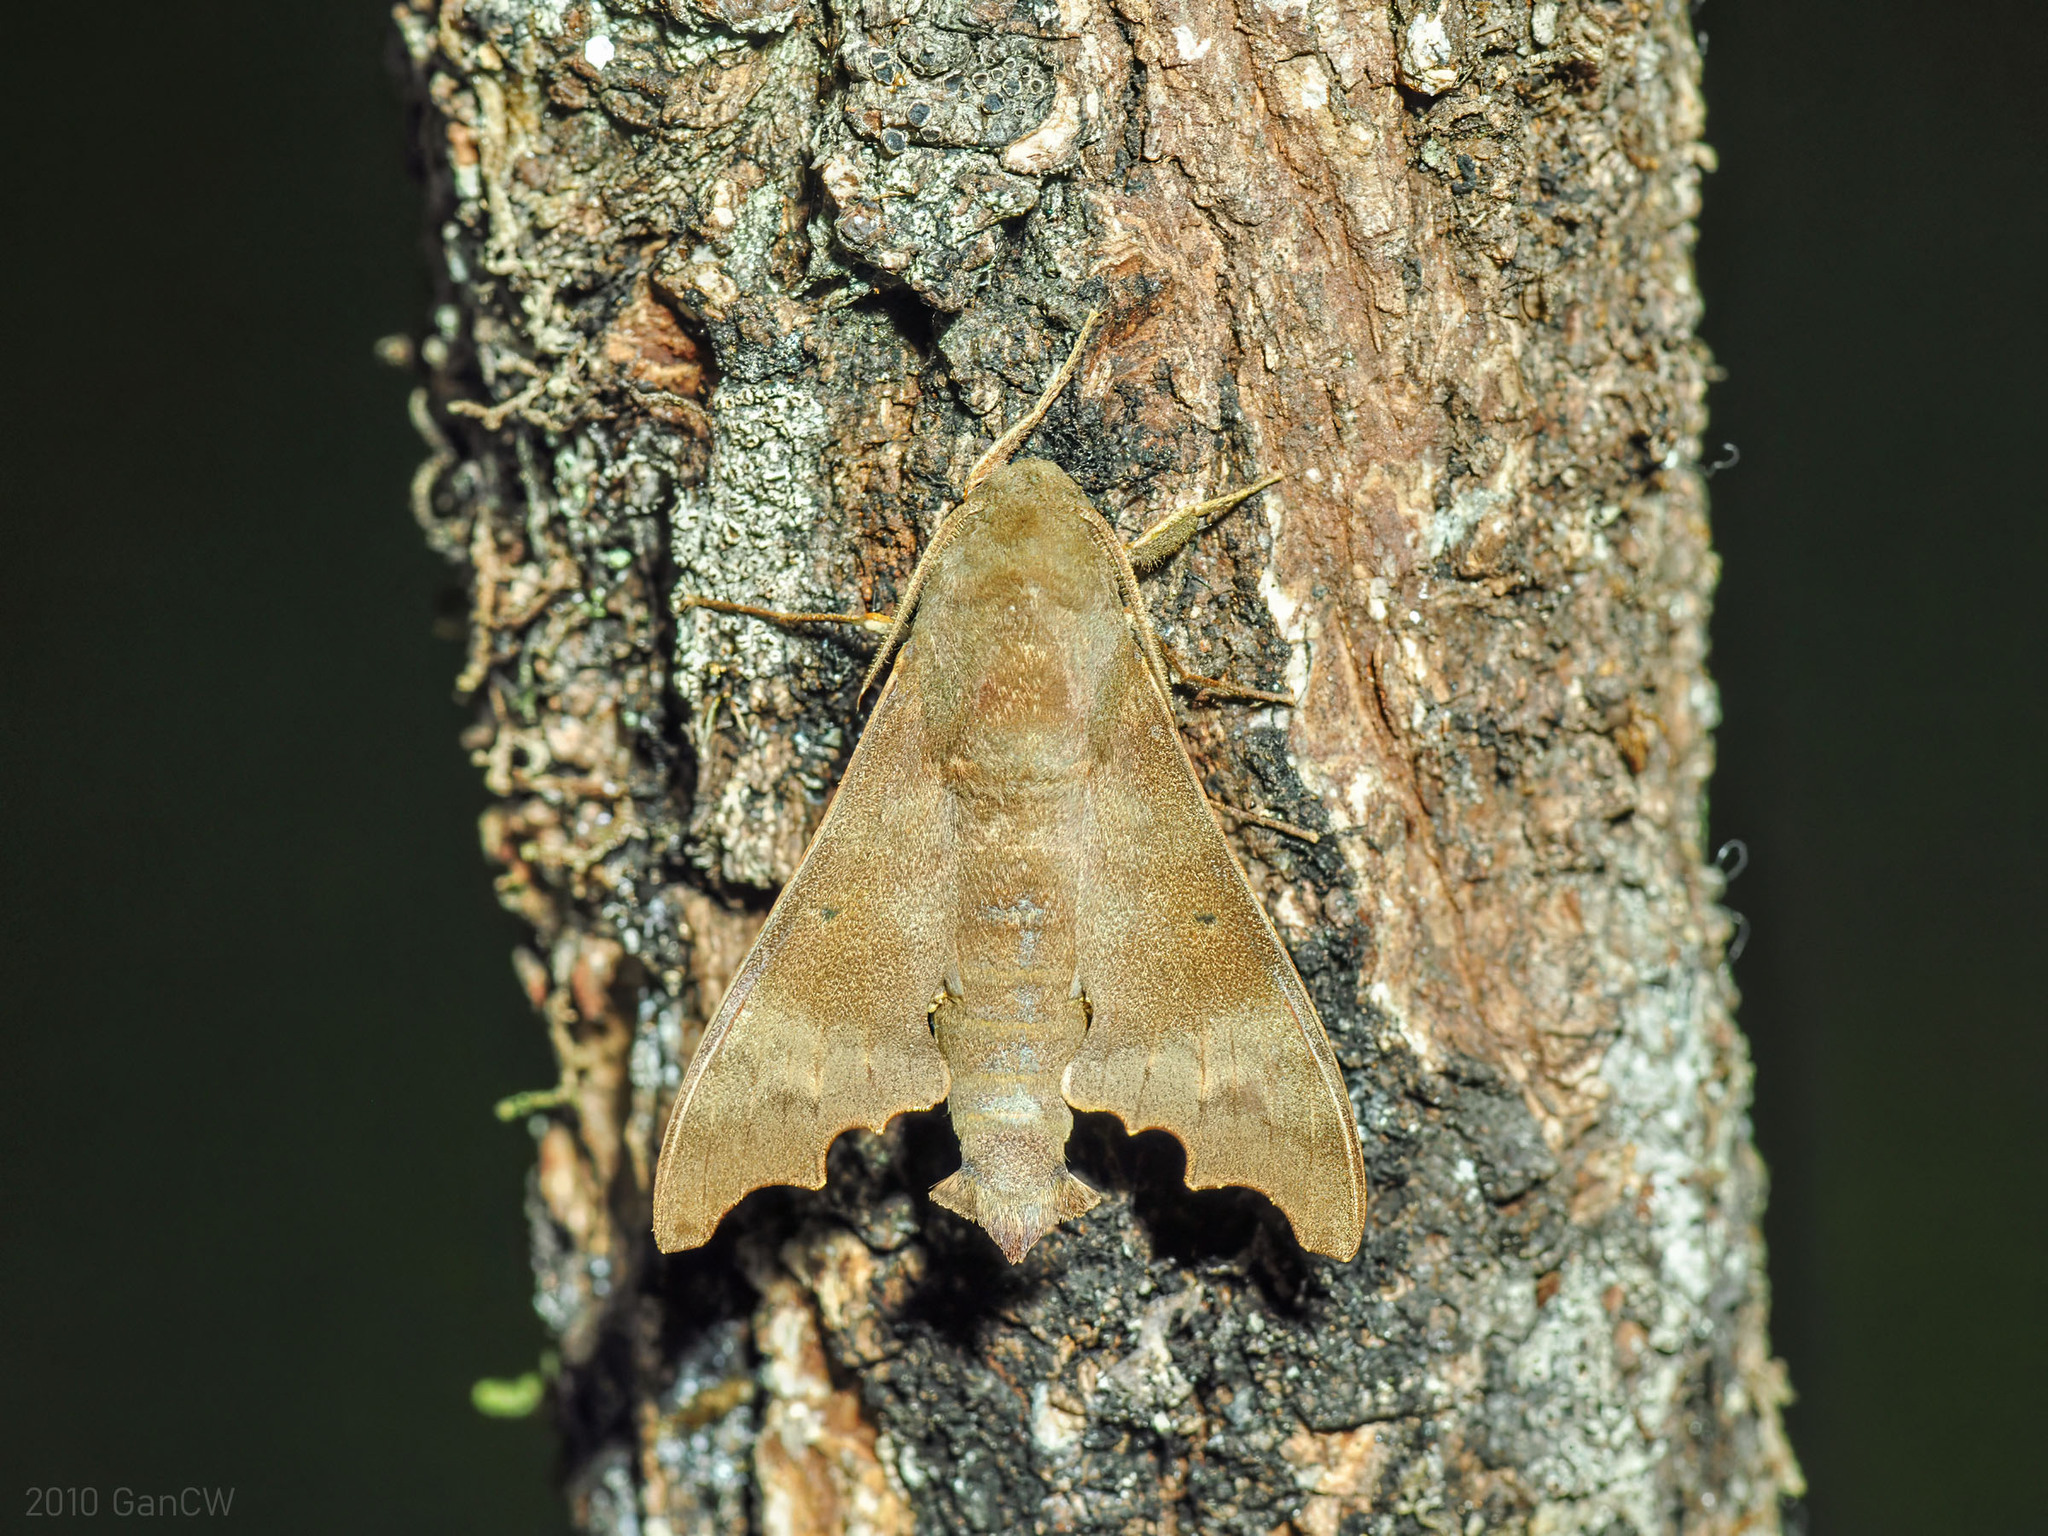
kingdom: Animalia
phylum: Arthropoda
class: Insecta
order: Lepidoptera
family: Sphingidae
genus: Cypa
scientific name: Cypa decolor
